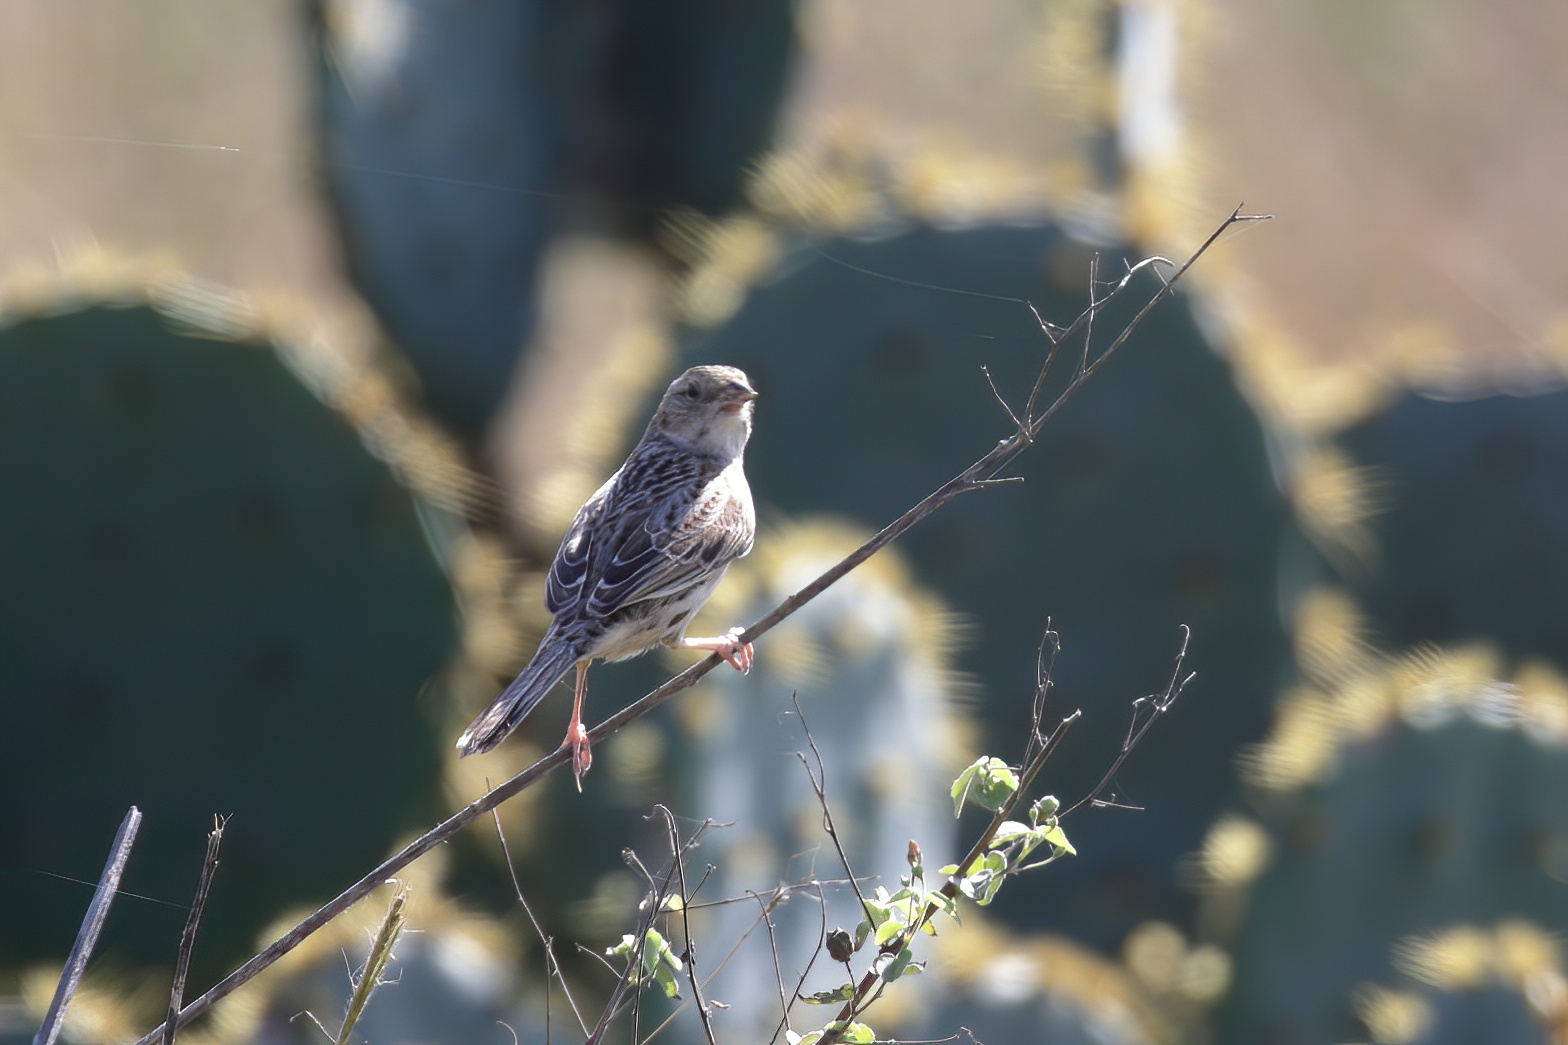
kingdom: Animalia
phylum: Chordata
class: Aves
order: Passeriformes
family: Passerellidae
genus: Peucaea
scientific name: Peucaea cassinii
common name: Cassin's sparrow
